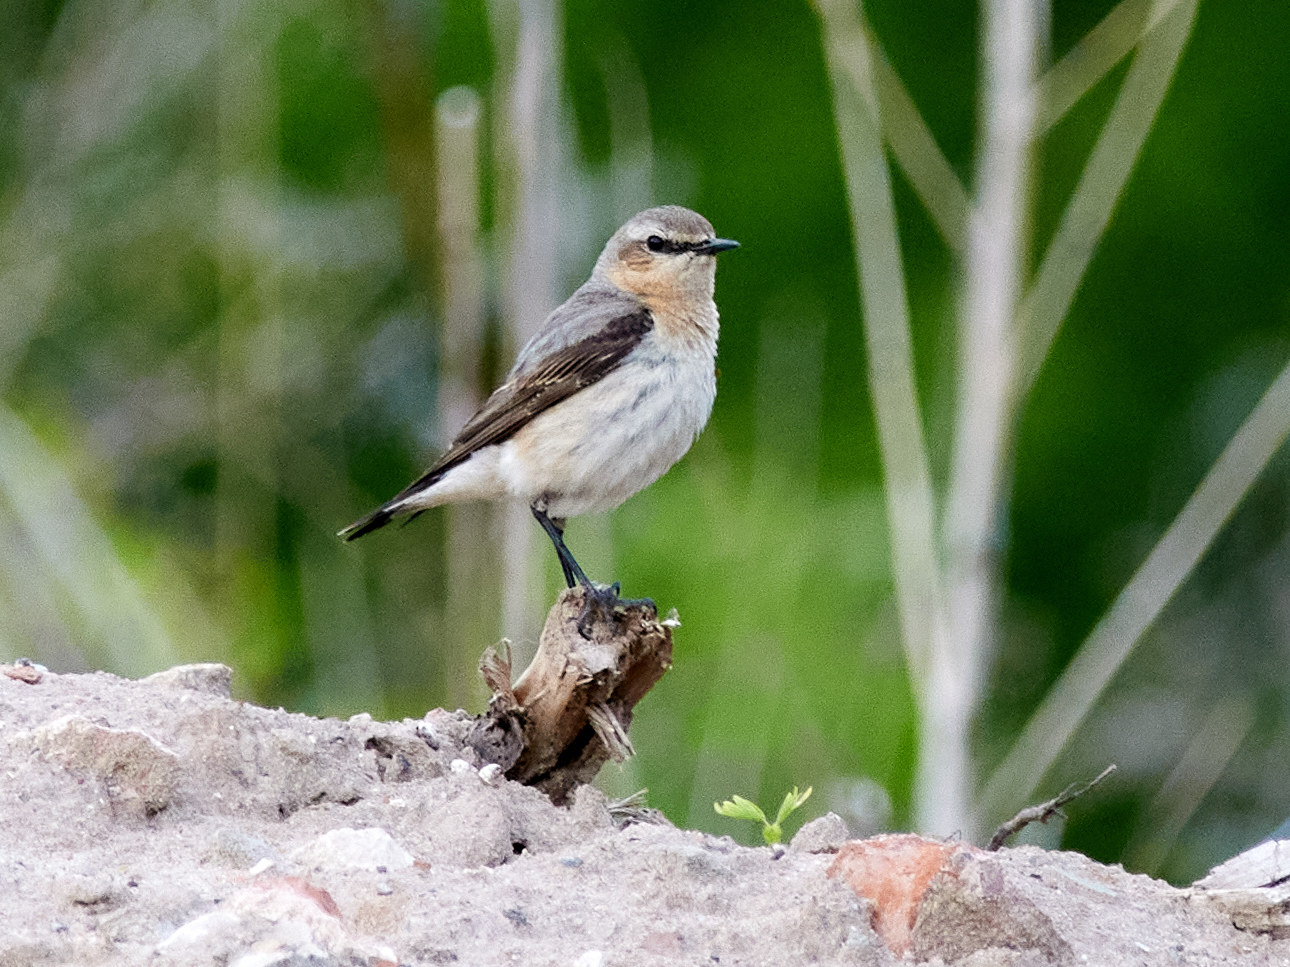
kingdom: Animalia
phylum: Chordata
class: Aves
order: Passeriformes
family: Muscicapidae
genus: Oenanthe
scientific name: Oenanthe oenanthe
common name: Northern wheatear
